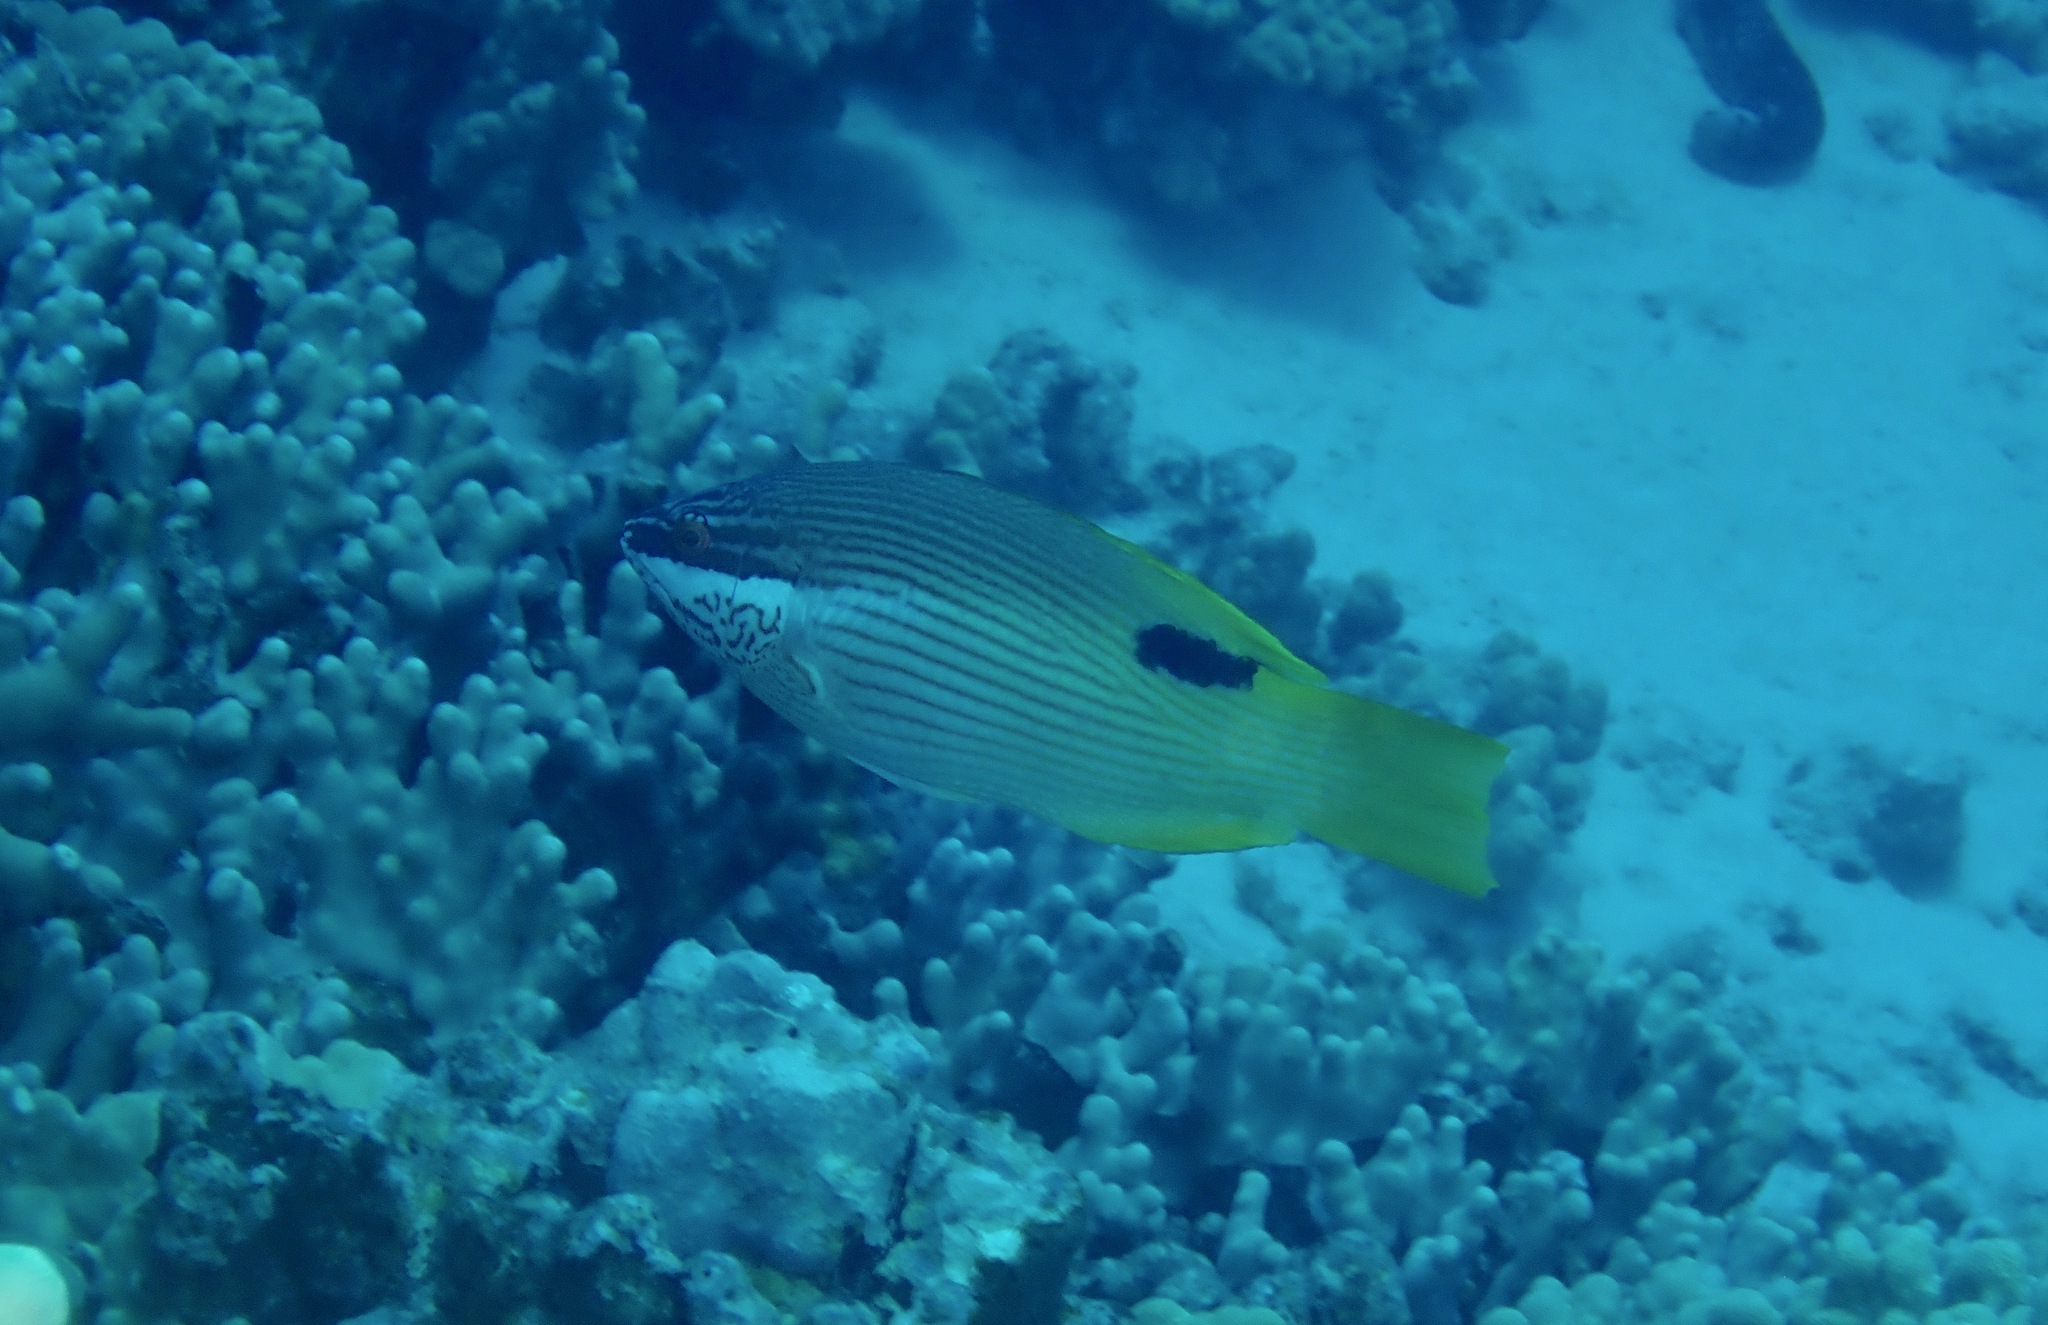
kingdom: Animalia
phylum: Chordata
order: Perciformes
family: Labridae
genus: Bodianus
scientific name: Bodianus albotaeniatus
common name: Hawaiian hogfish
